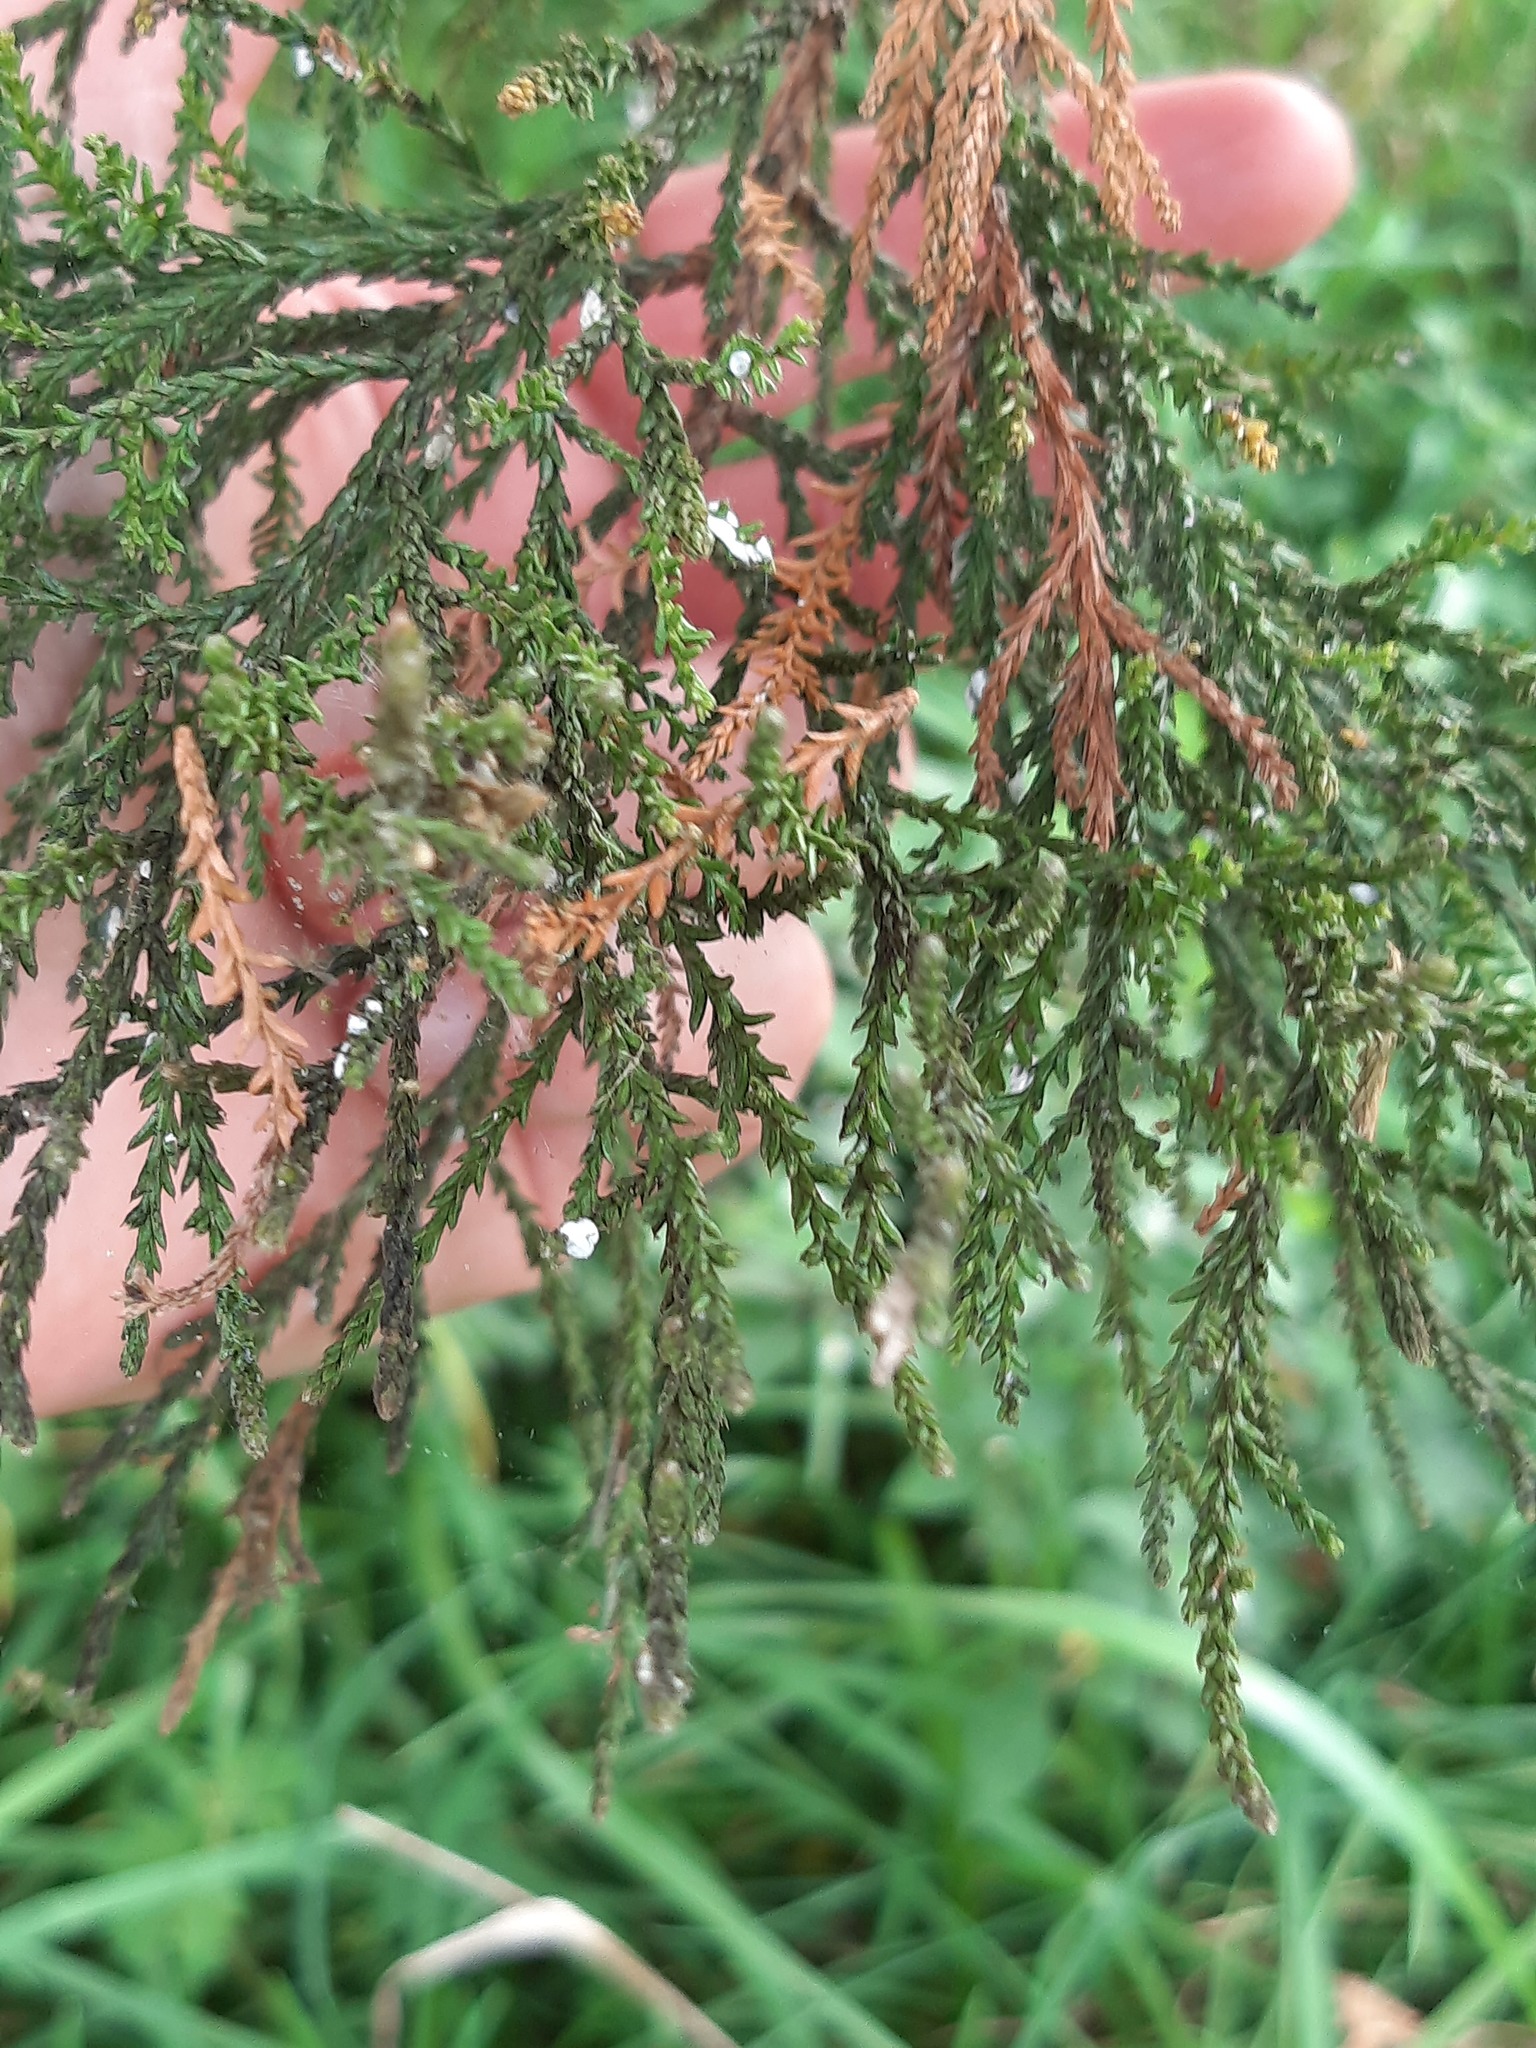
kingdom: Plantae
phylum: Tracheophyta
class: Pinopsida
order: Pinales
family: Podocarpaceae
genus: Dacrycarpus
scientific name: Dacrycarpus dacrydioides
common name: White pine
